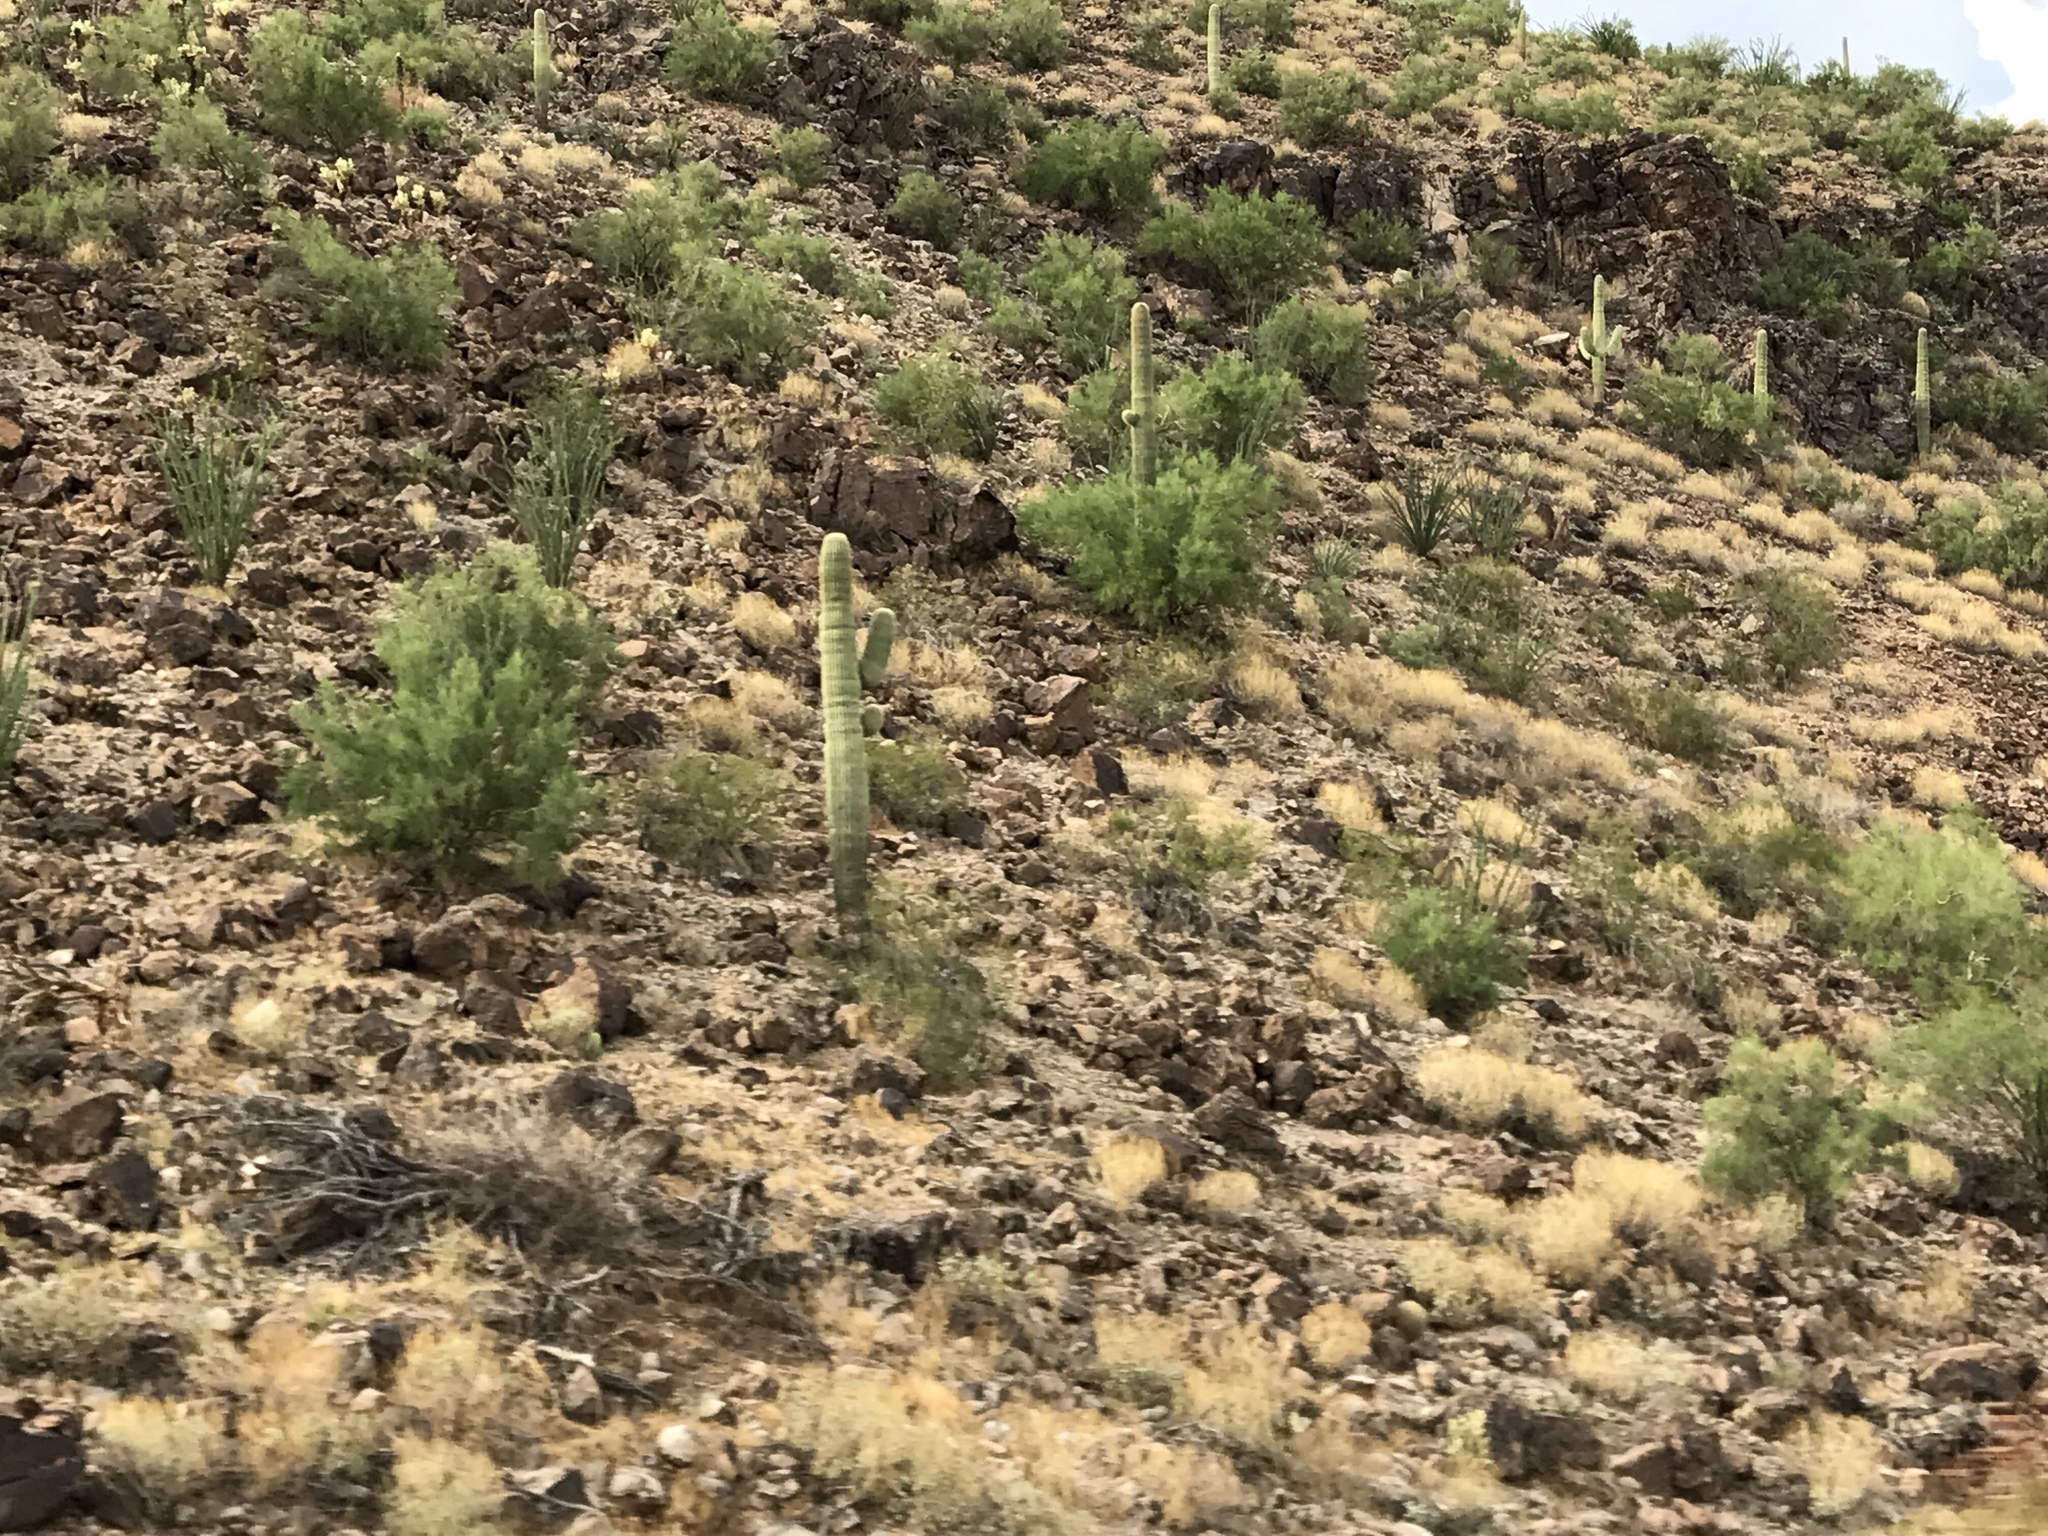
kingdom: Plantae
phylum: Tracheophyta
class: Magnoliopsida
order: Caryophyllales
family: Cactaceae
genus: Carnegiea
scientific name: Carnegiea gigantea
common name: Saguaro
